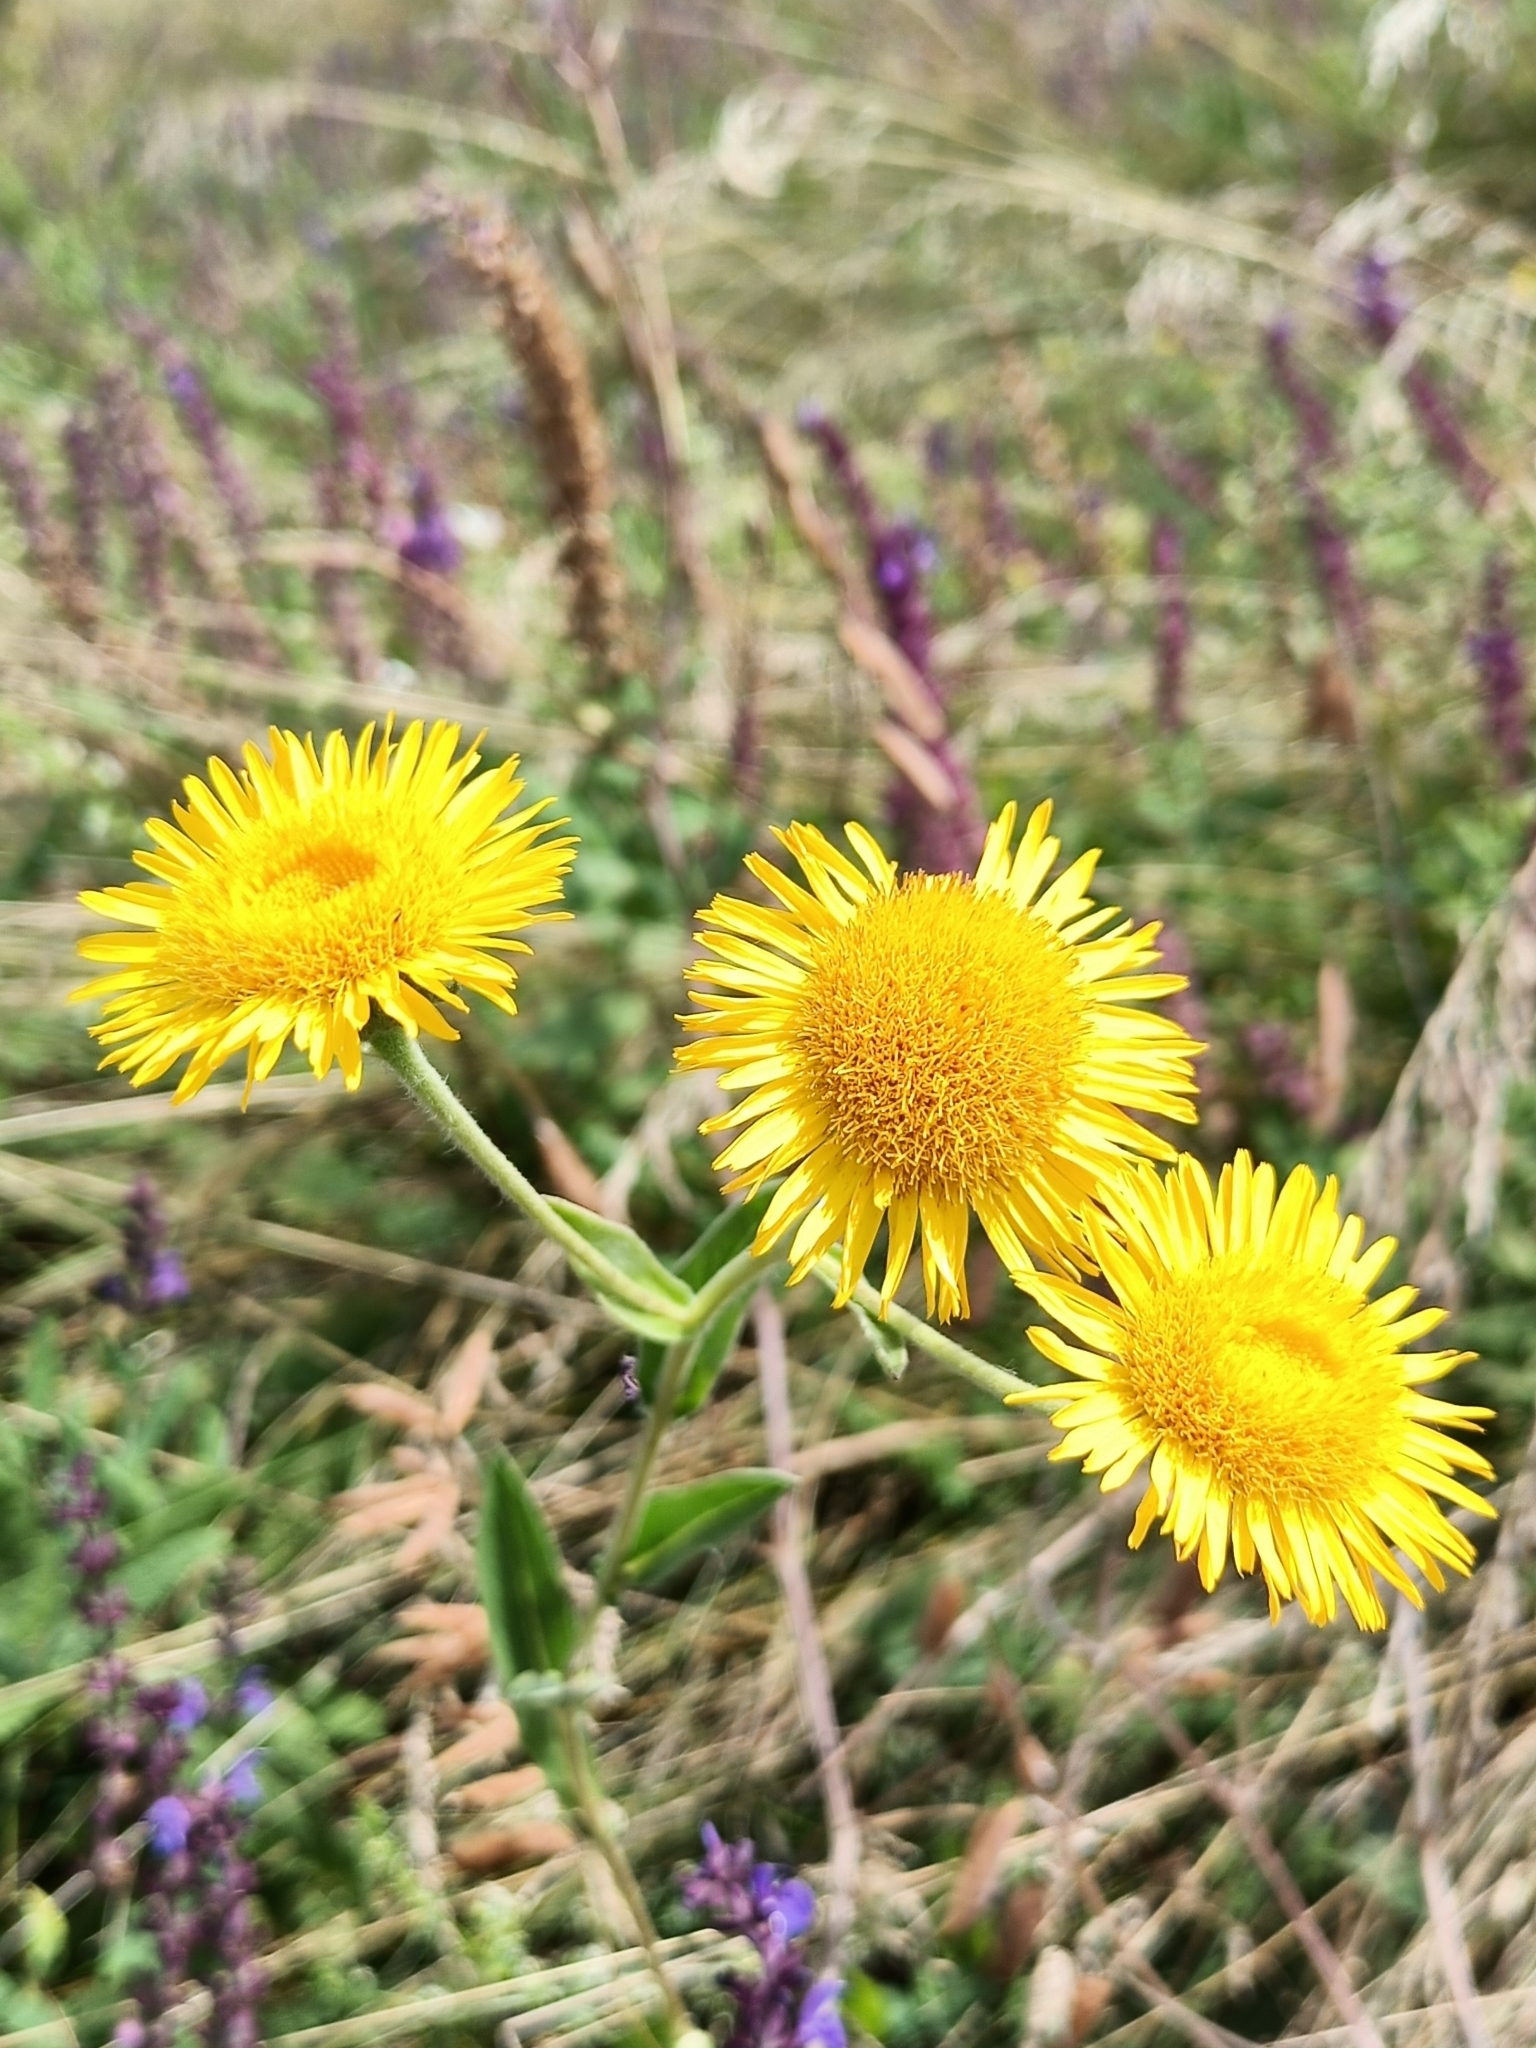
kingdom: Plantae
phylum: Tracheophyta
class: Magnoliopsida
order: Asterales
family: Asteraceae
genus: Pentanema
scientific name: Pentanema britannicum
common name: British elecampane
